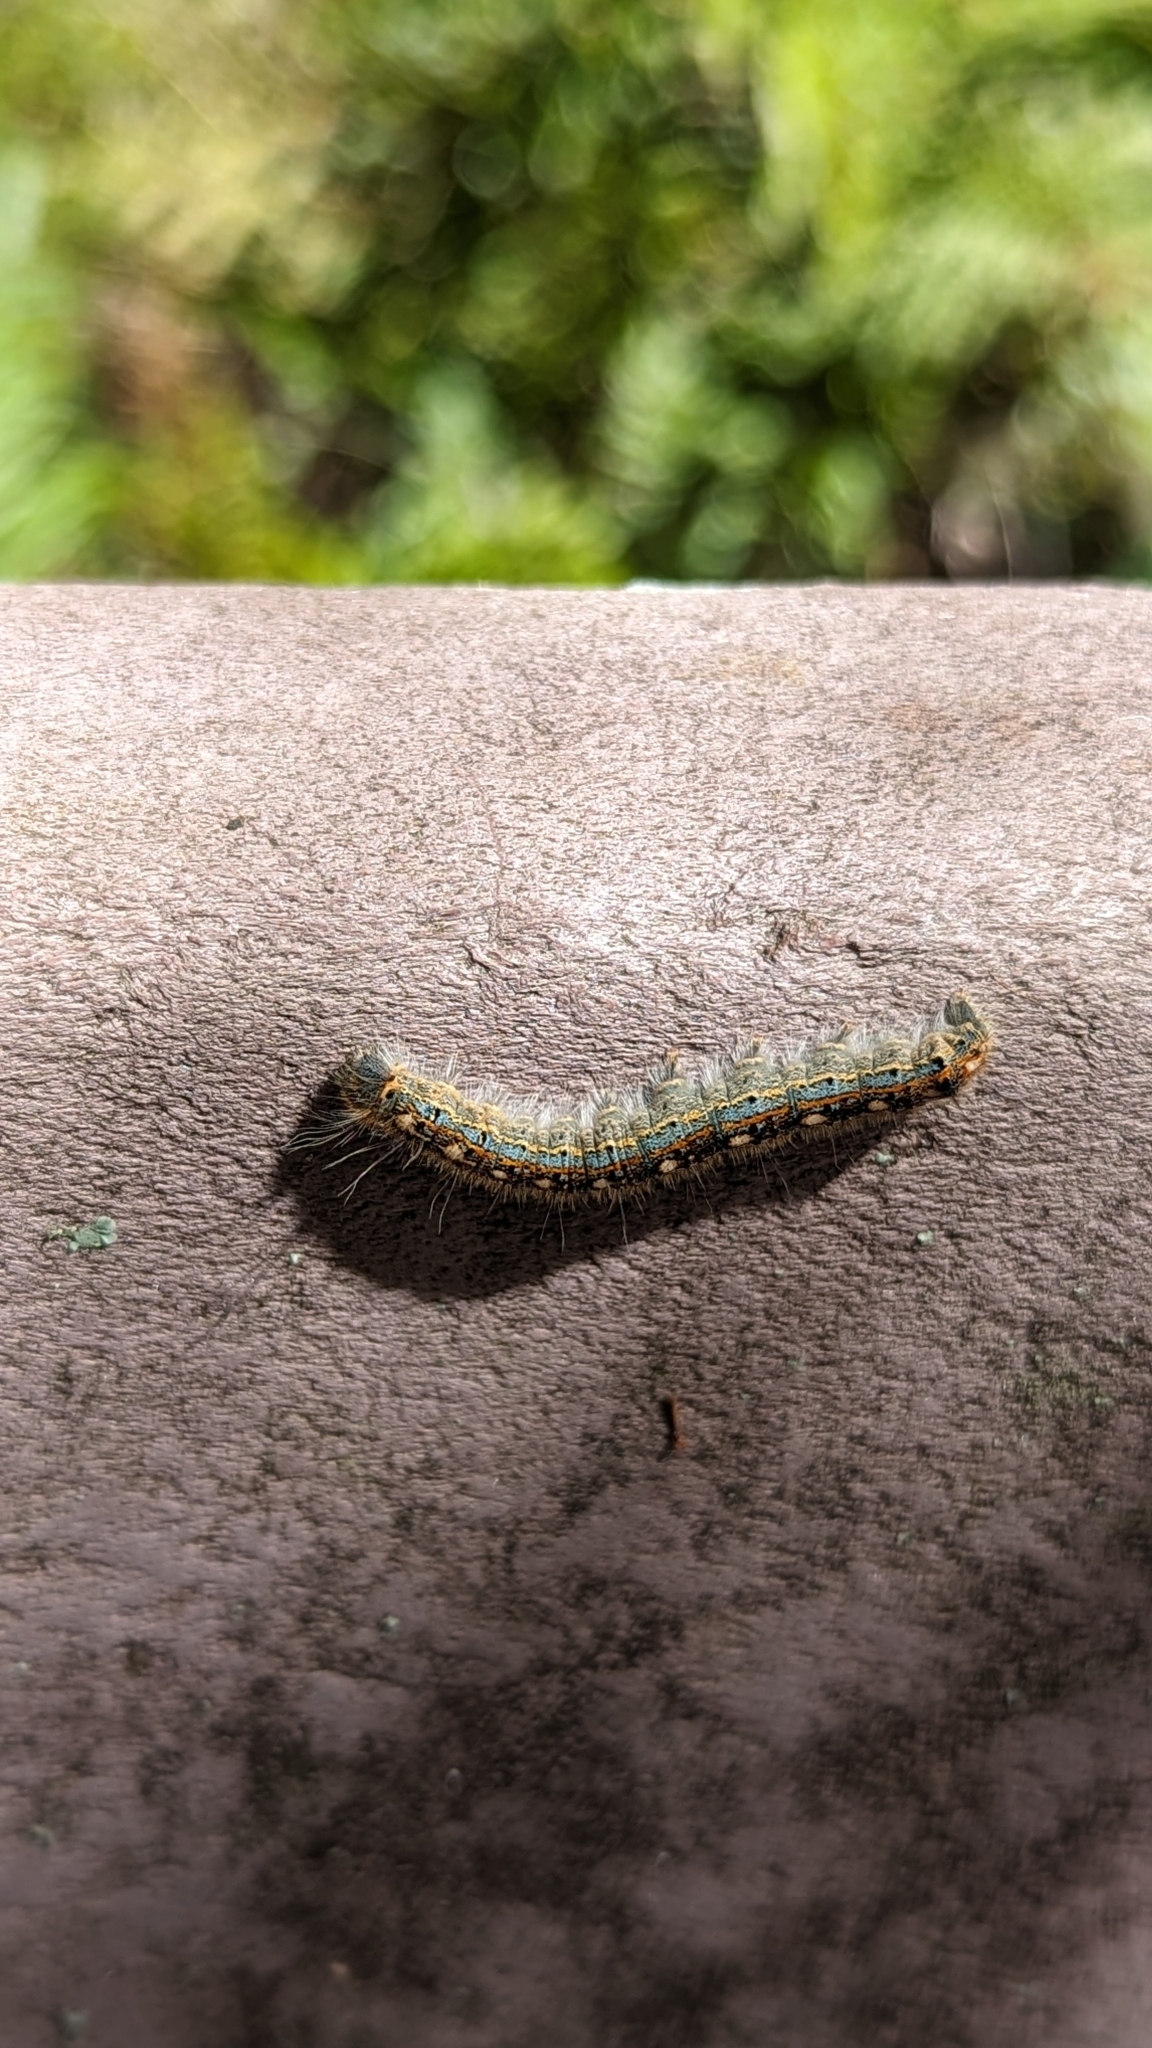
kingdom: Animalia
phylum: Arthropoda
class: Insecta
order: Lepidoptera
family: Lasiocampidae
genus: Malacosoma
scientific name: Malacosoma disstria
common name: Forest tent caterpillar
